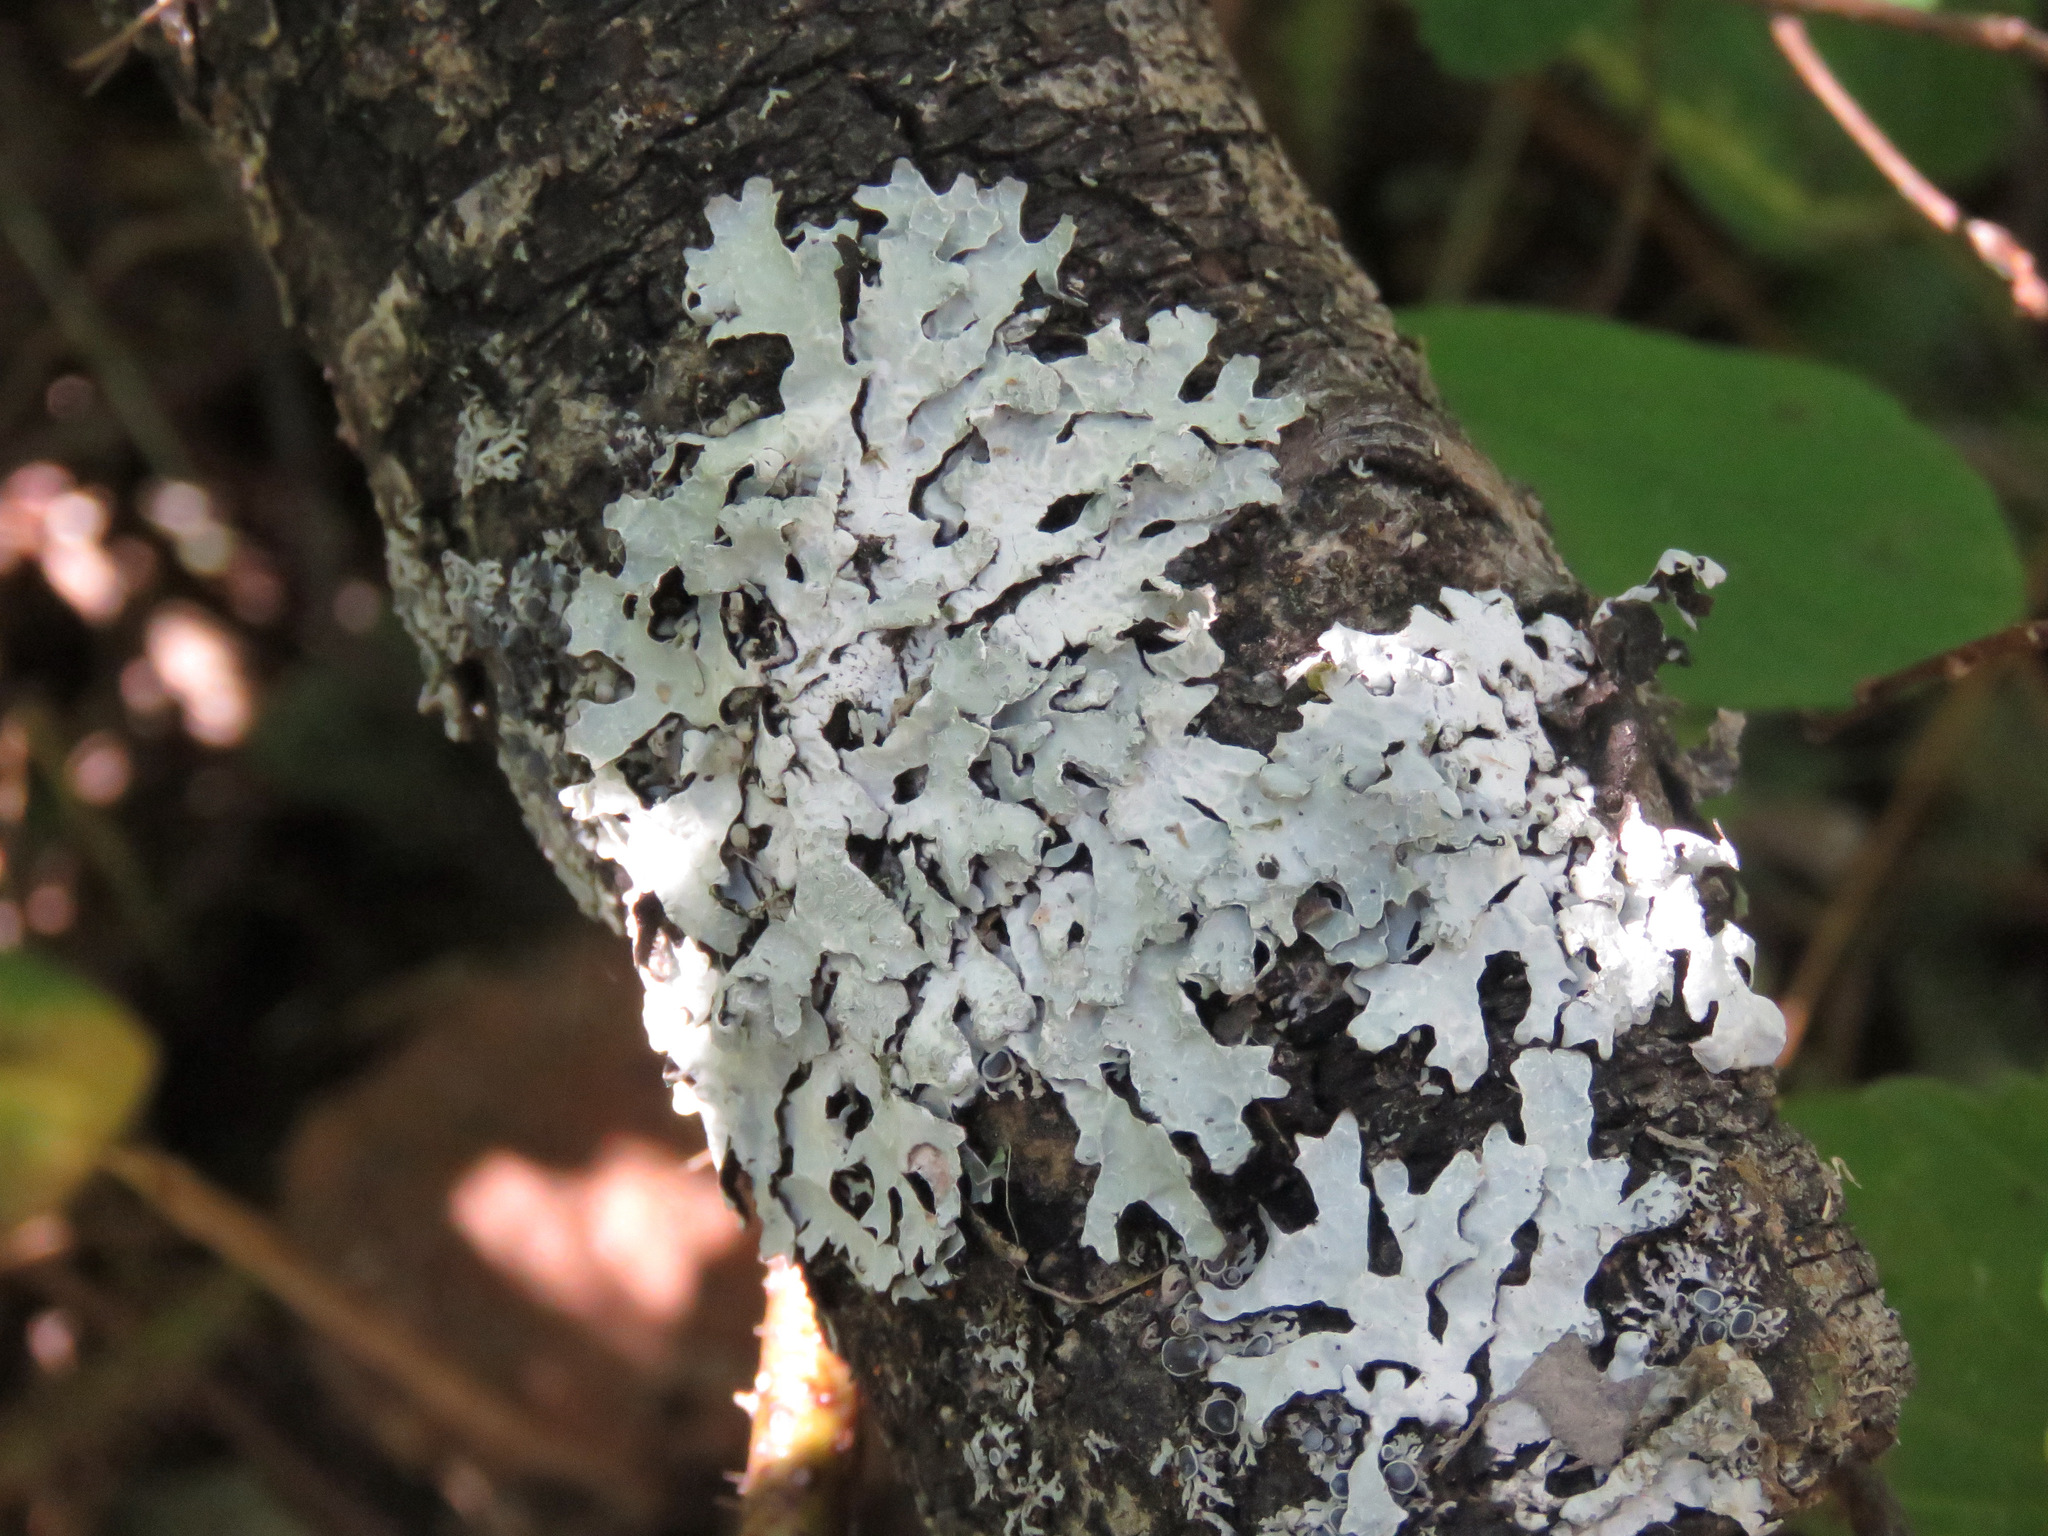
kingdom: Fungi
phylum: Ascomycota
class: Lecanoromycetes
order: Lecanorales
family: Parmeliaceae
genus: Parmelia
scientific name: Parmelia sulcata
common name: Netted shield lichen
